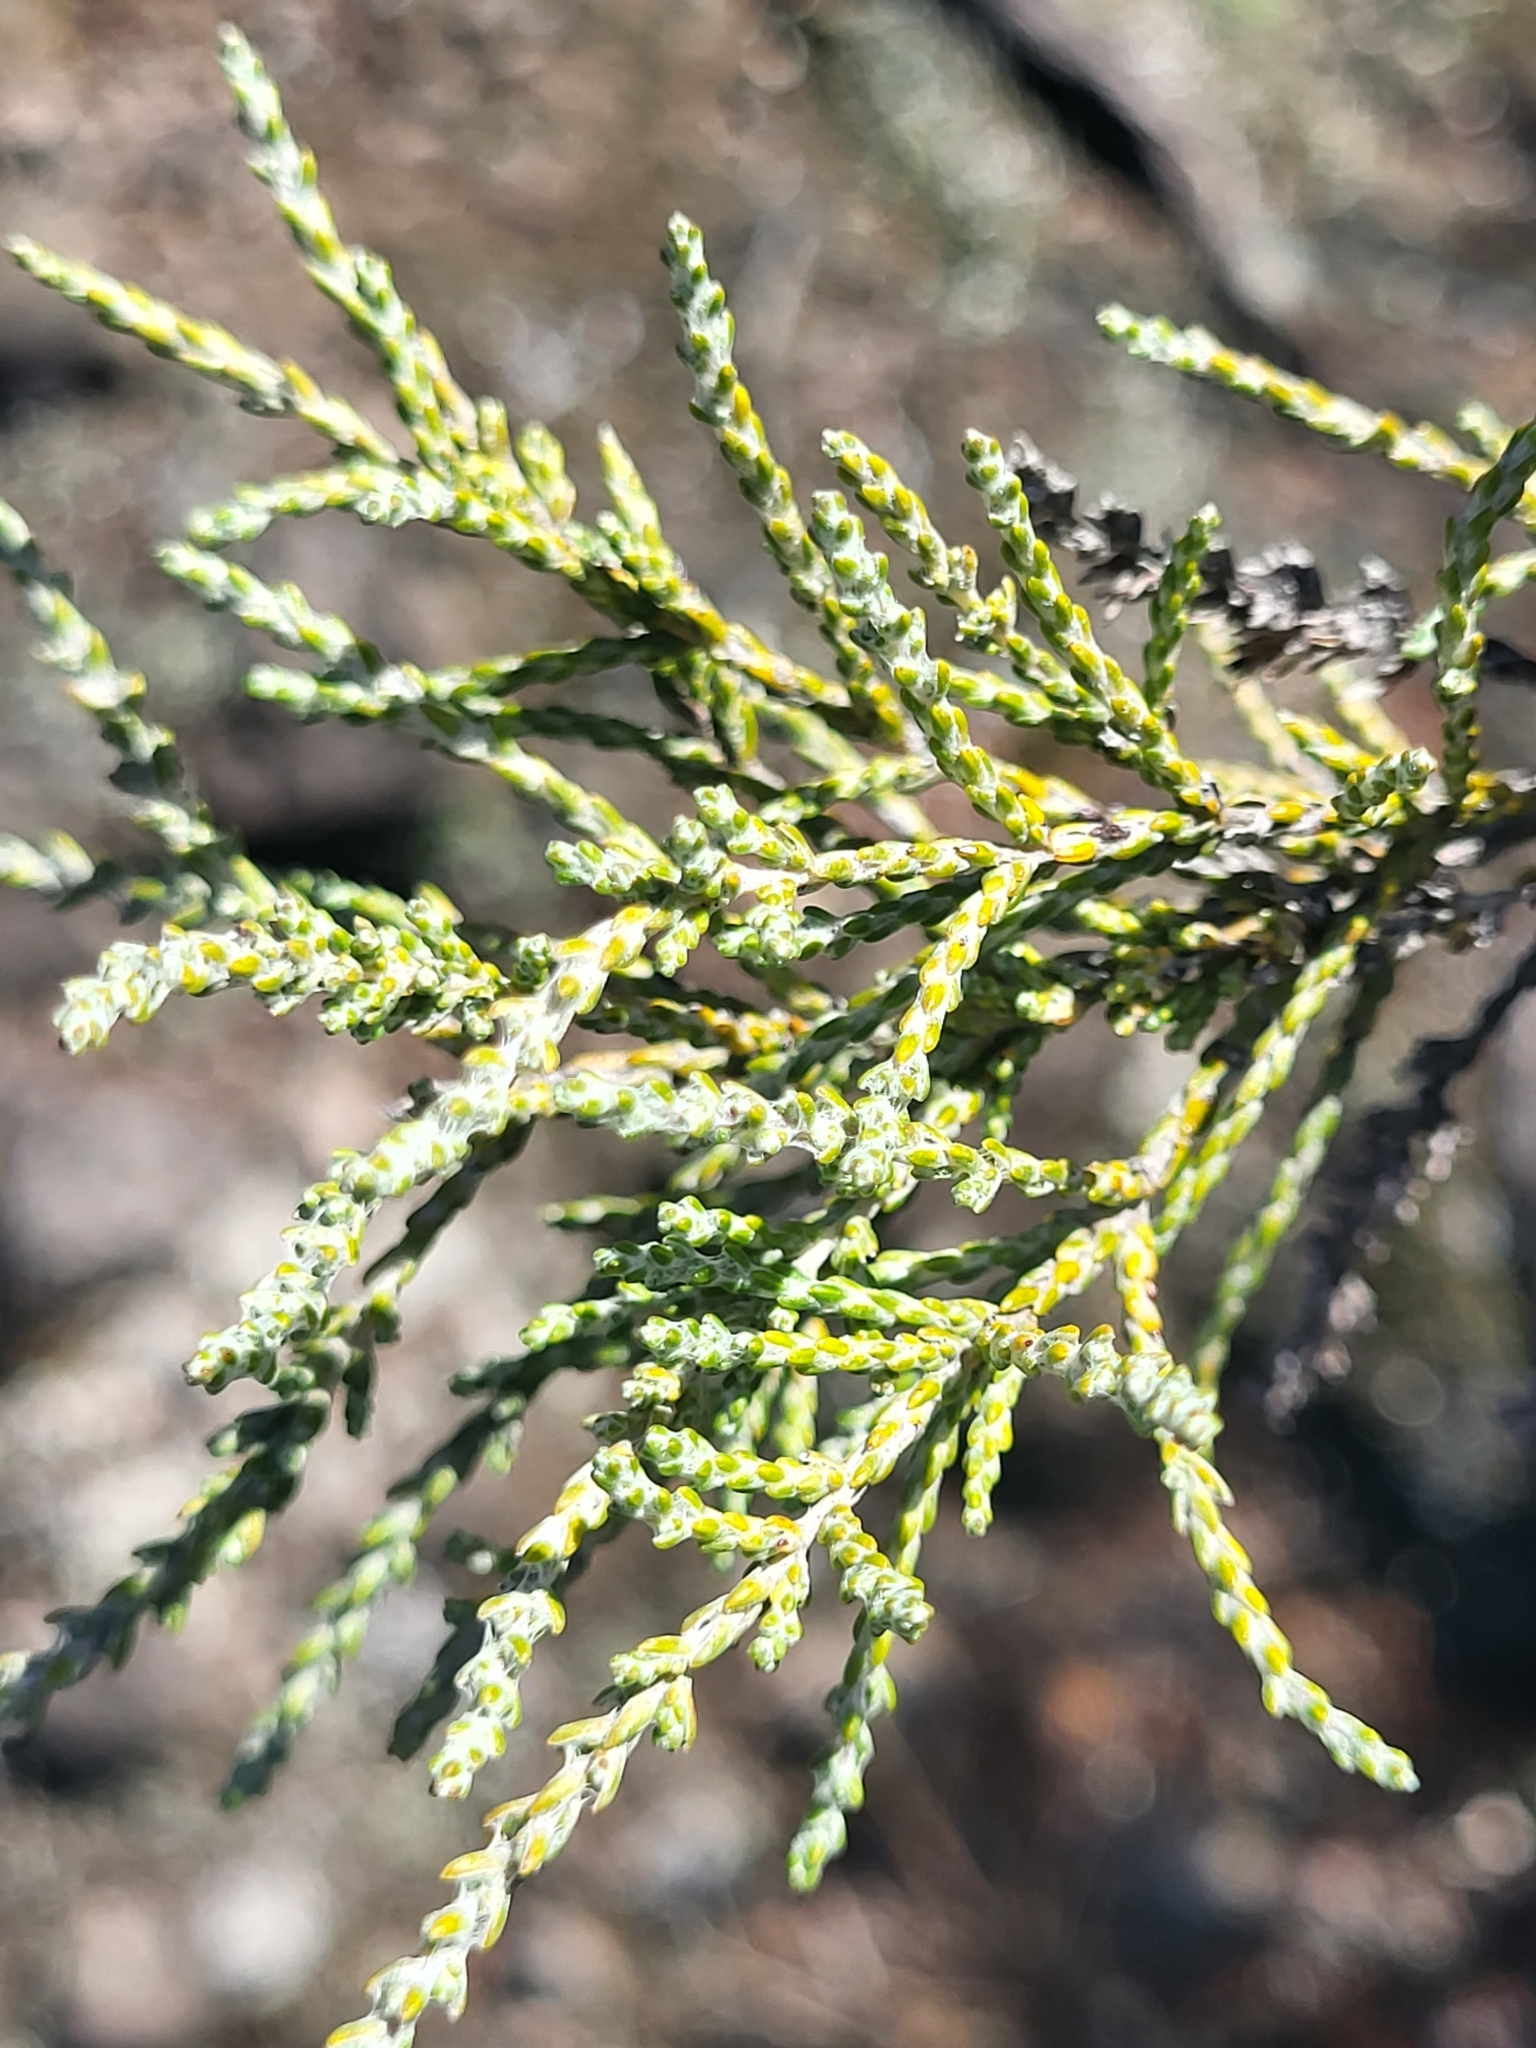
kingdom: Plantae
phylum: Tracheophyta
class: Magnoliopsida
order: Asterales
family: Asteraceae
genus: Seriphium
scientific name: Seriphium passerinoides
